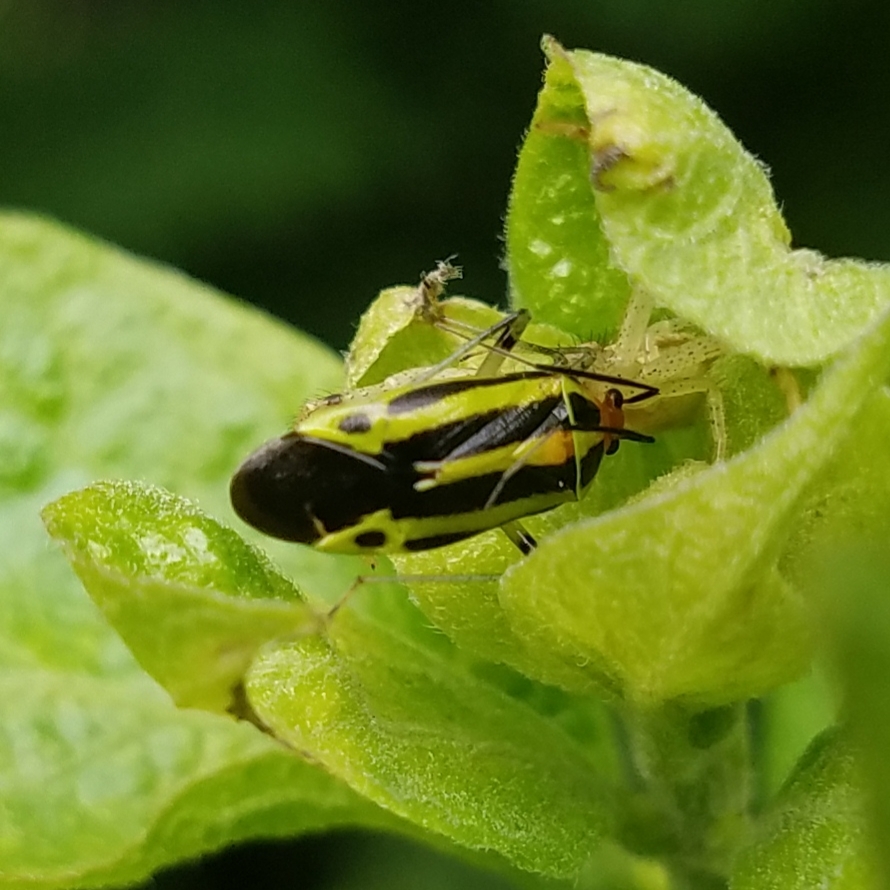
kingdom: Animalia
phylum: Arthropoda
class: Insecta
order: Hemiptera
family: Miridae
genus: Poecilocapsus
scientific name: Poecilocapsus lineatus
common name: Four-lined plant bug
